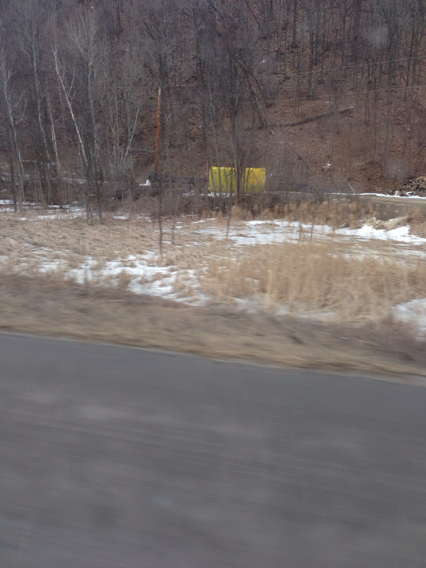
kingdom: Plantae
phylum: Tracheophyta
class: Liliopsida
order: Poales
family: Poaceae
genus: Phragmites
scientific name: Phragmites australis
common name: Common reed
